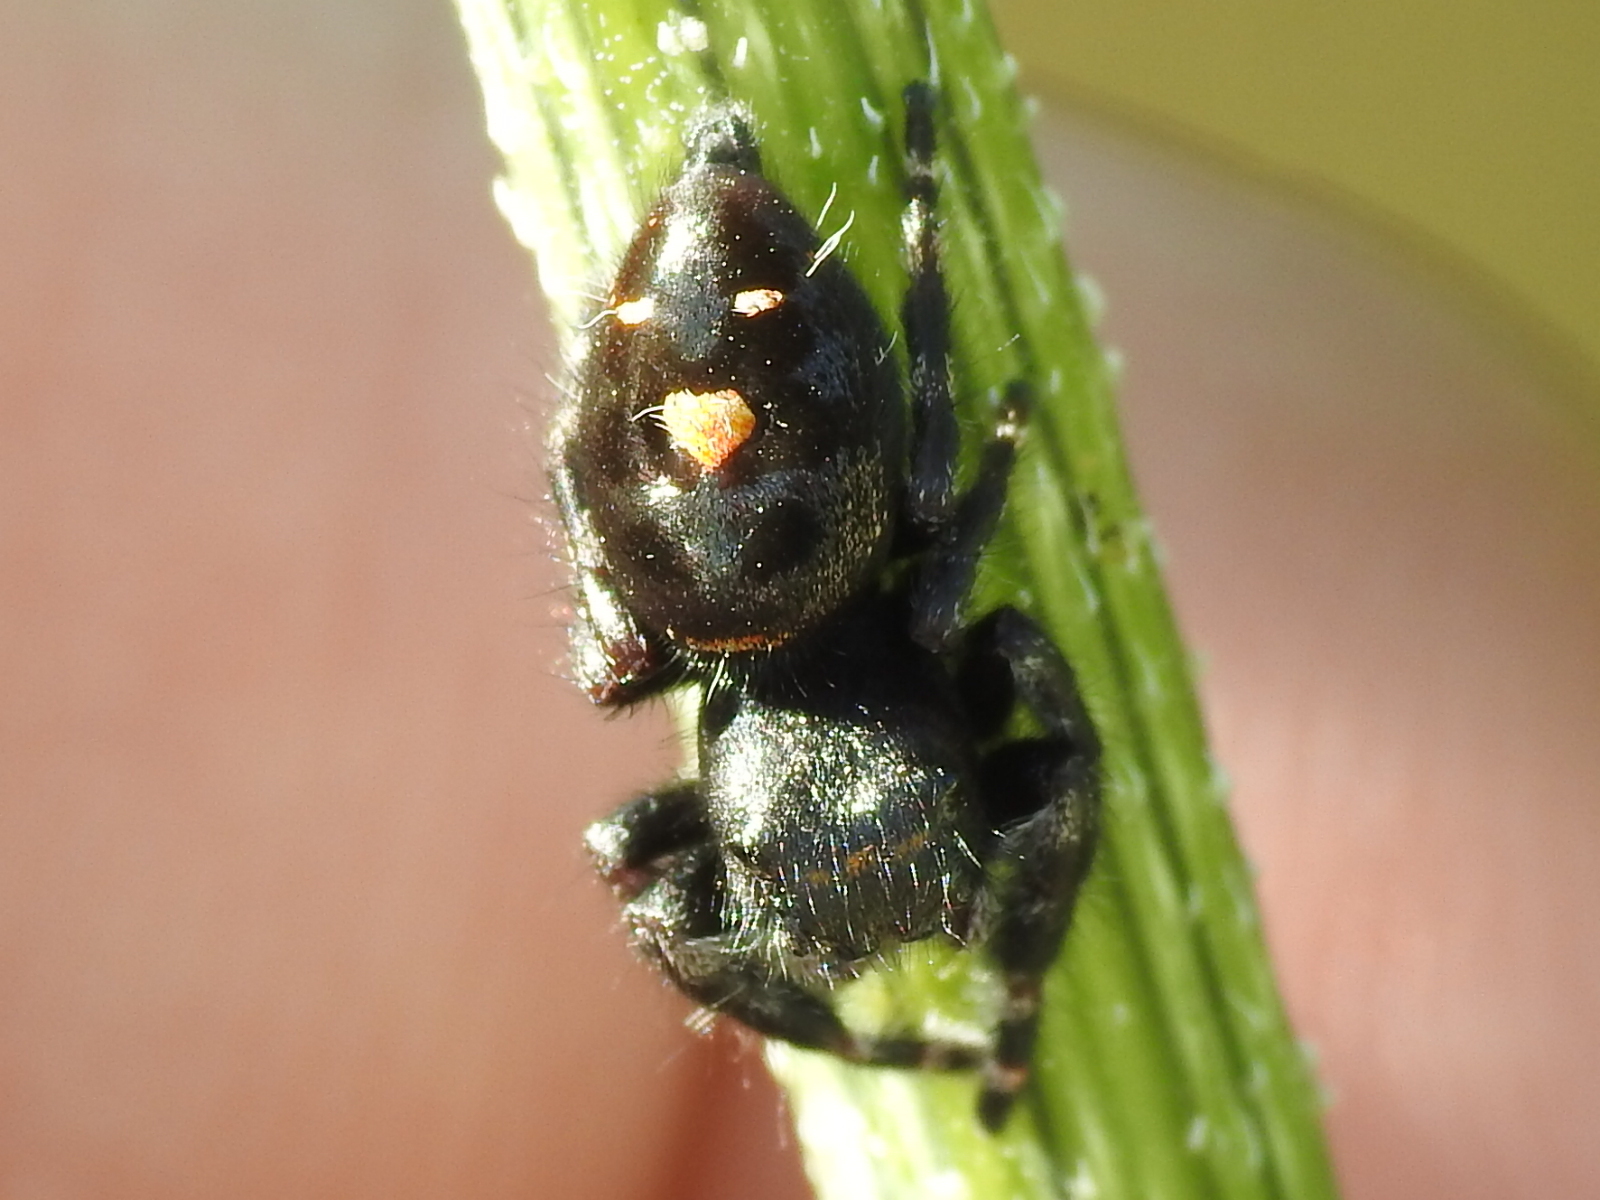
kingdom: Animalia
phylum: Arthropoda
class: Arachnida
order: Araneae
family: Salticidae
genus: Phidippus
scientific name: Phidippus audax
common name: Bold jumper
